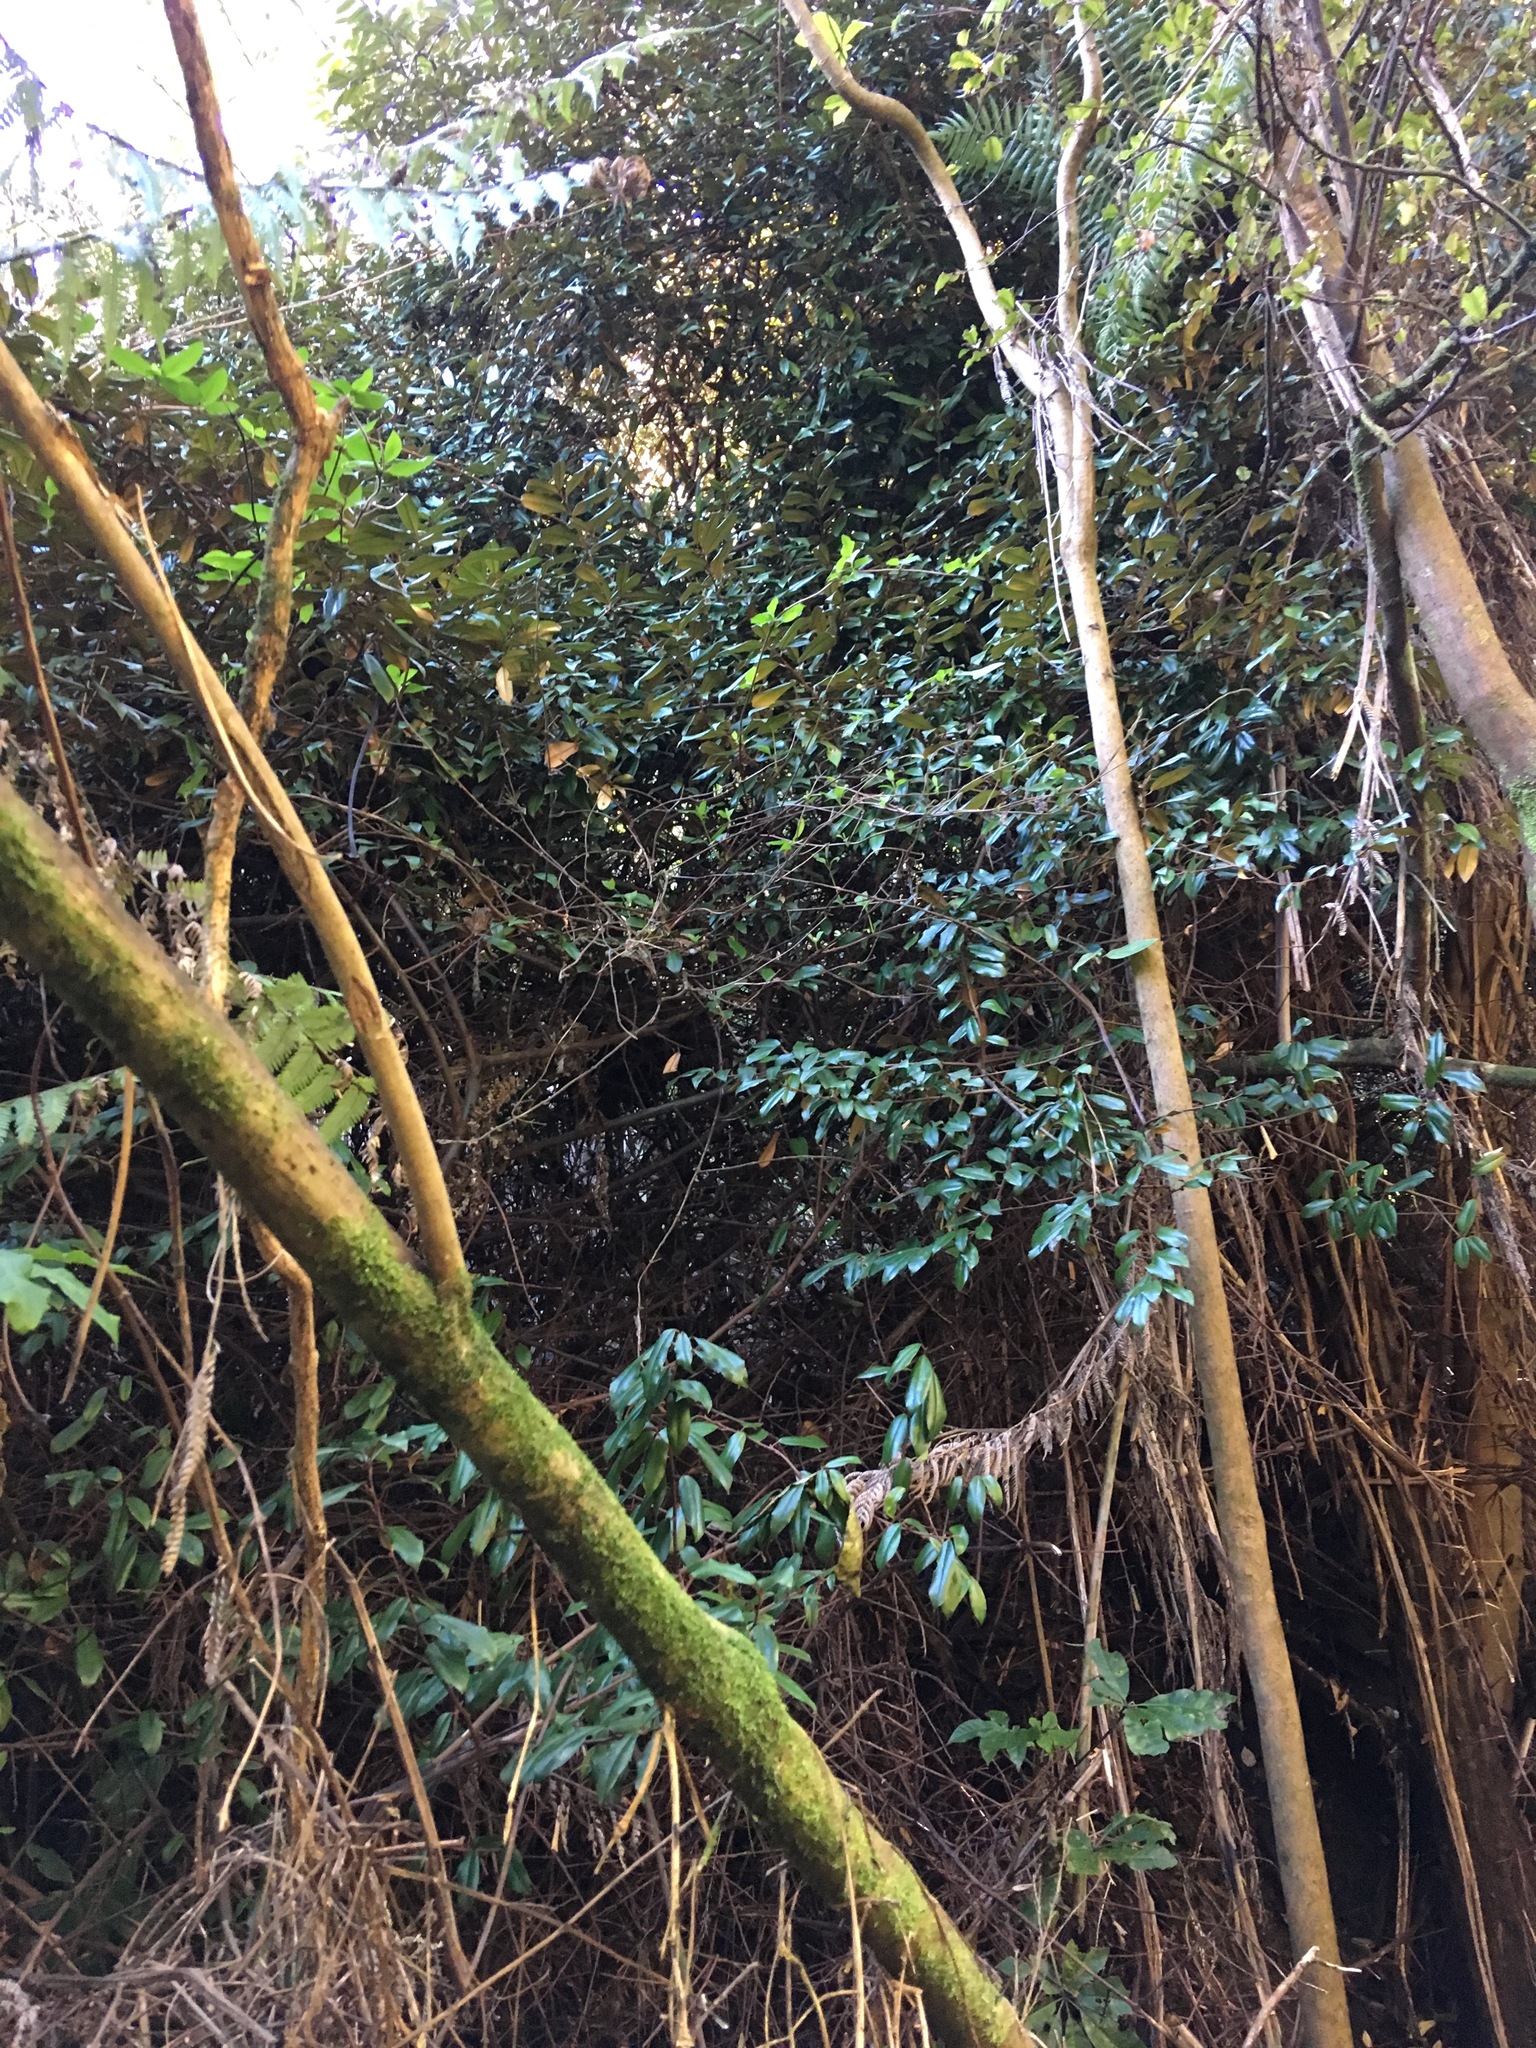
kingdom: Plantae
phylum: Tracheophyta
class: Magnoliopsida
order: Rosales
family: Elaeagnaceae
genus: Elaeagnus
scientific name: Elaeagnus reflexa
